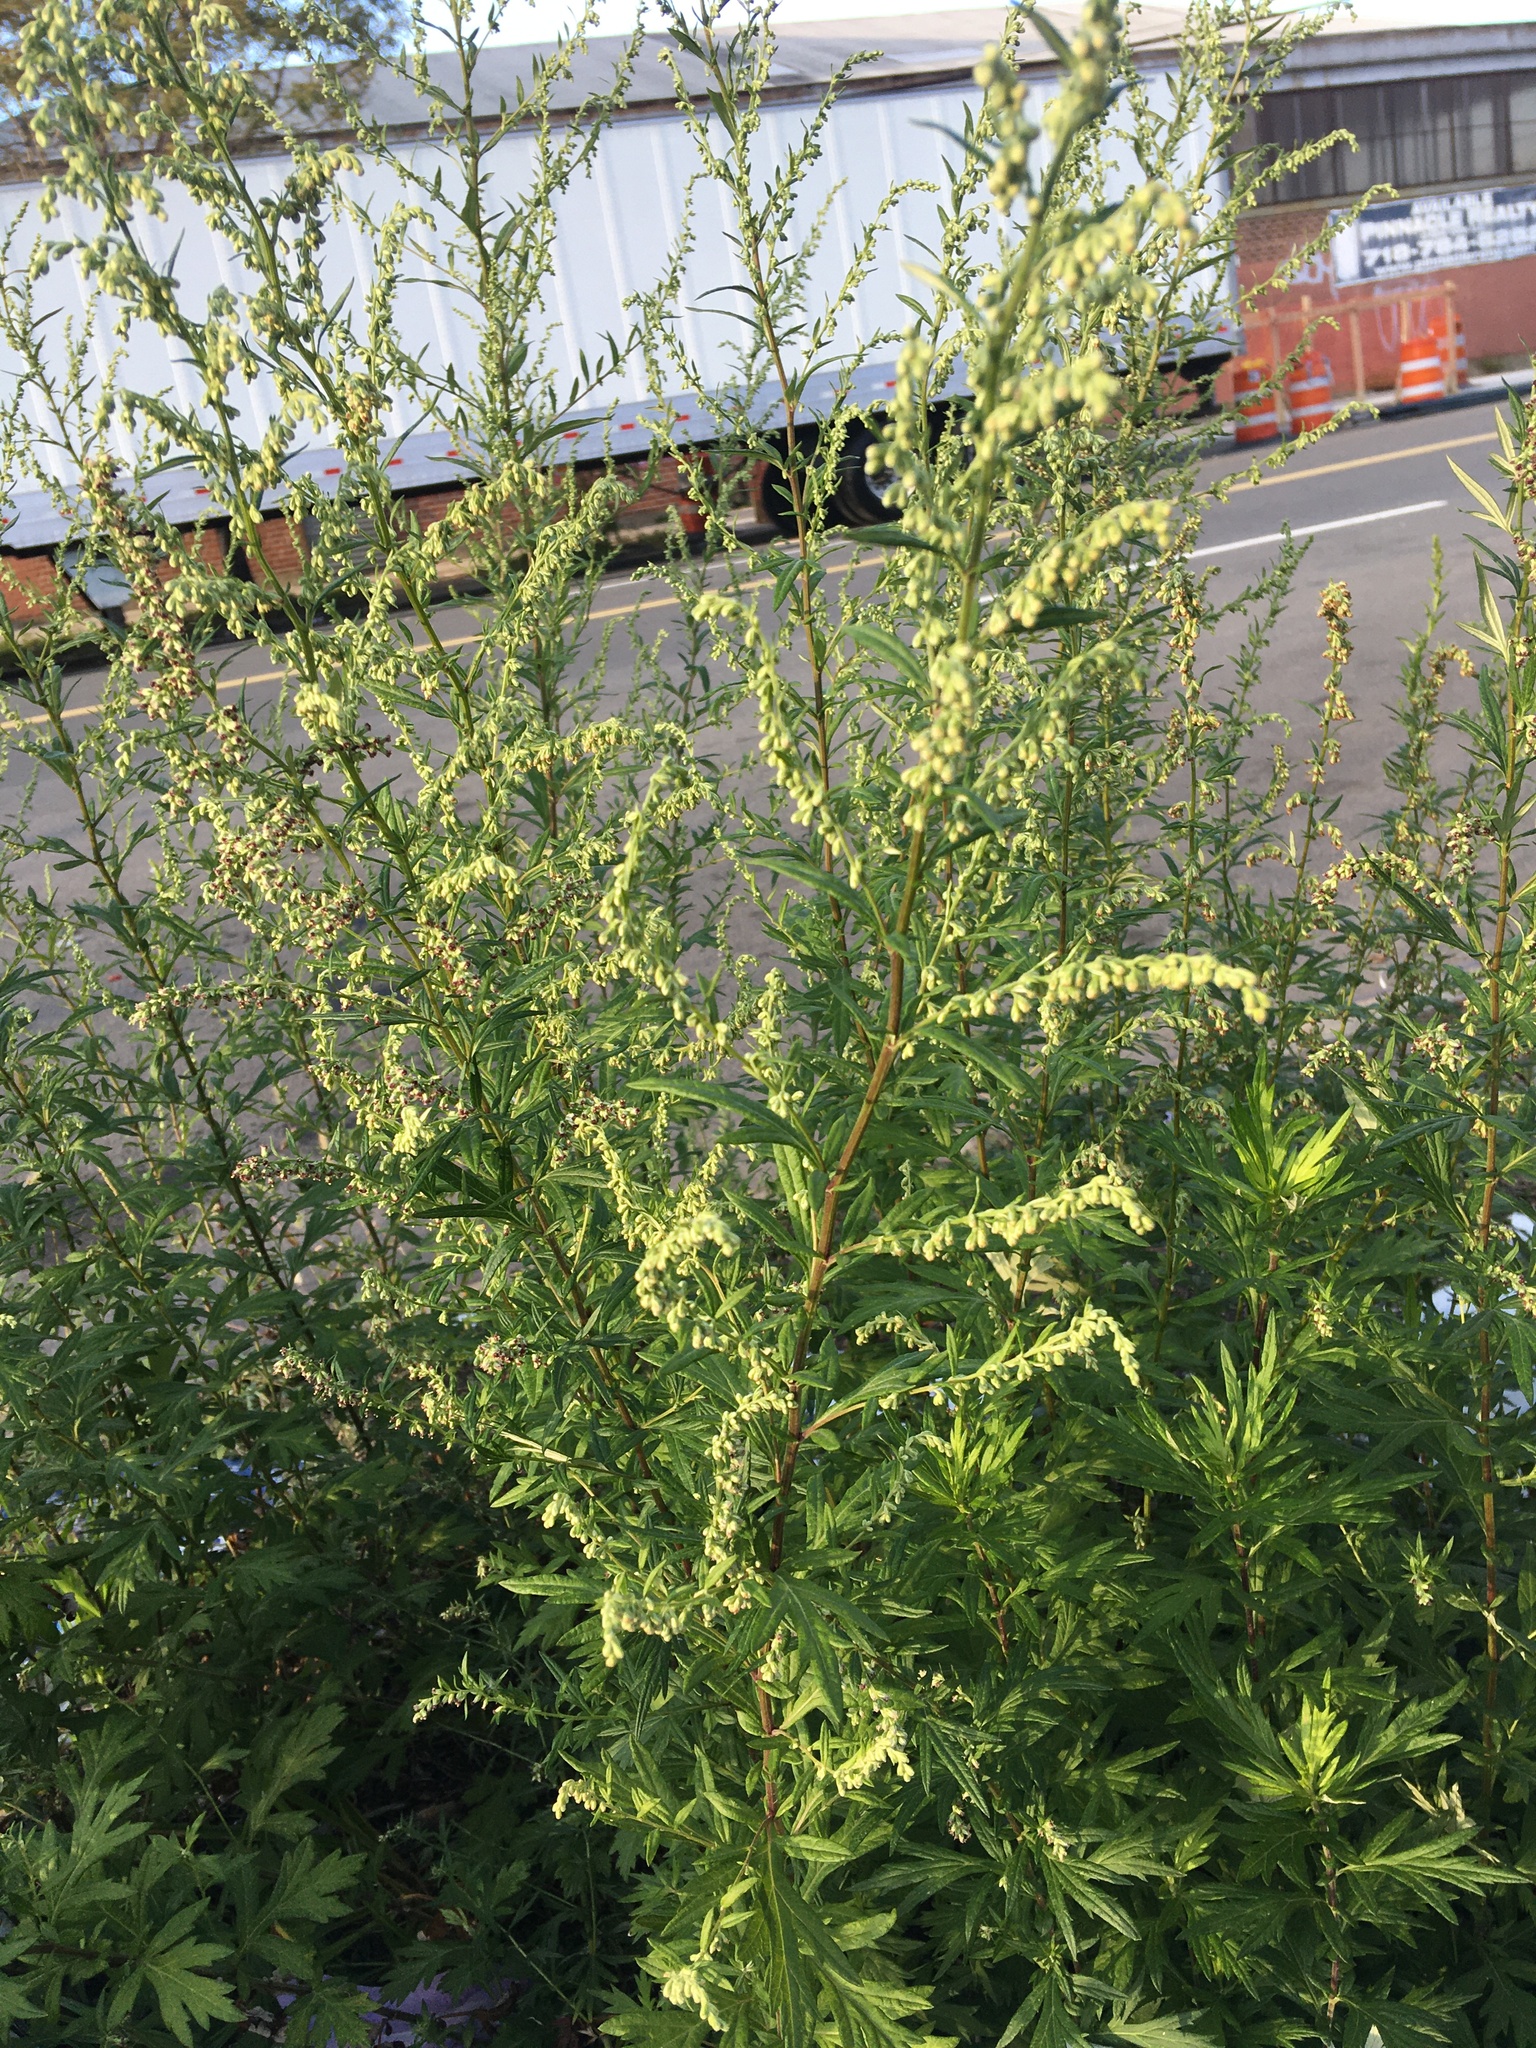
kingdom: Plantae
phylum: Tracheophyta
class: Magnoliopsida
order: Asterales
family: Asteraceae
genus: Artemisia
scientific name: Artemisia vulgaris
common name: Mugwort
